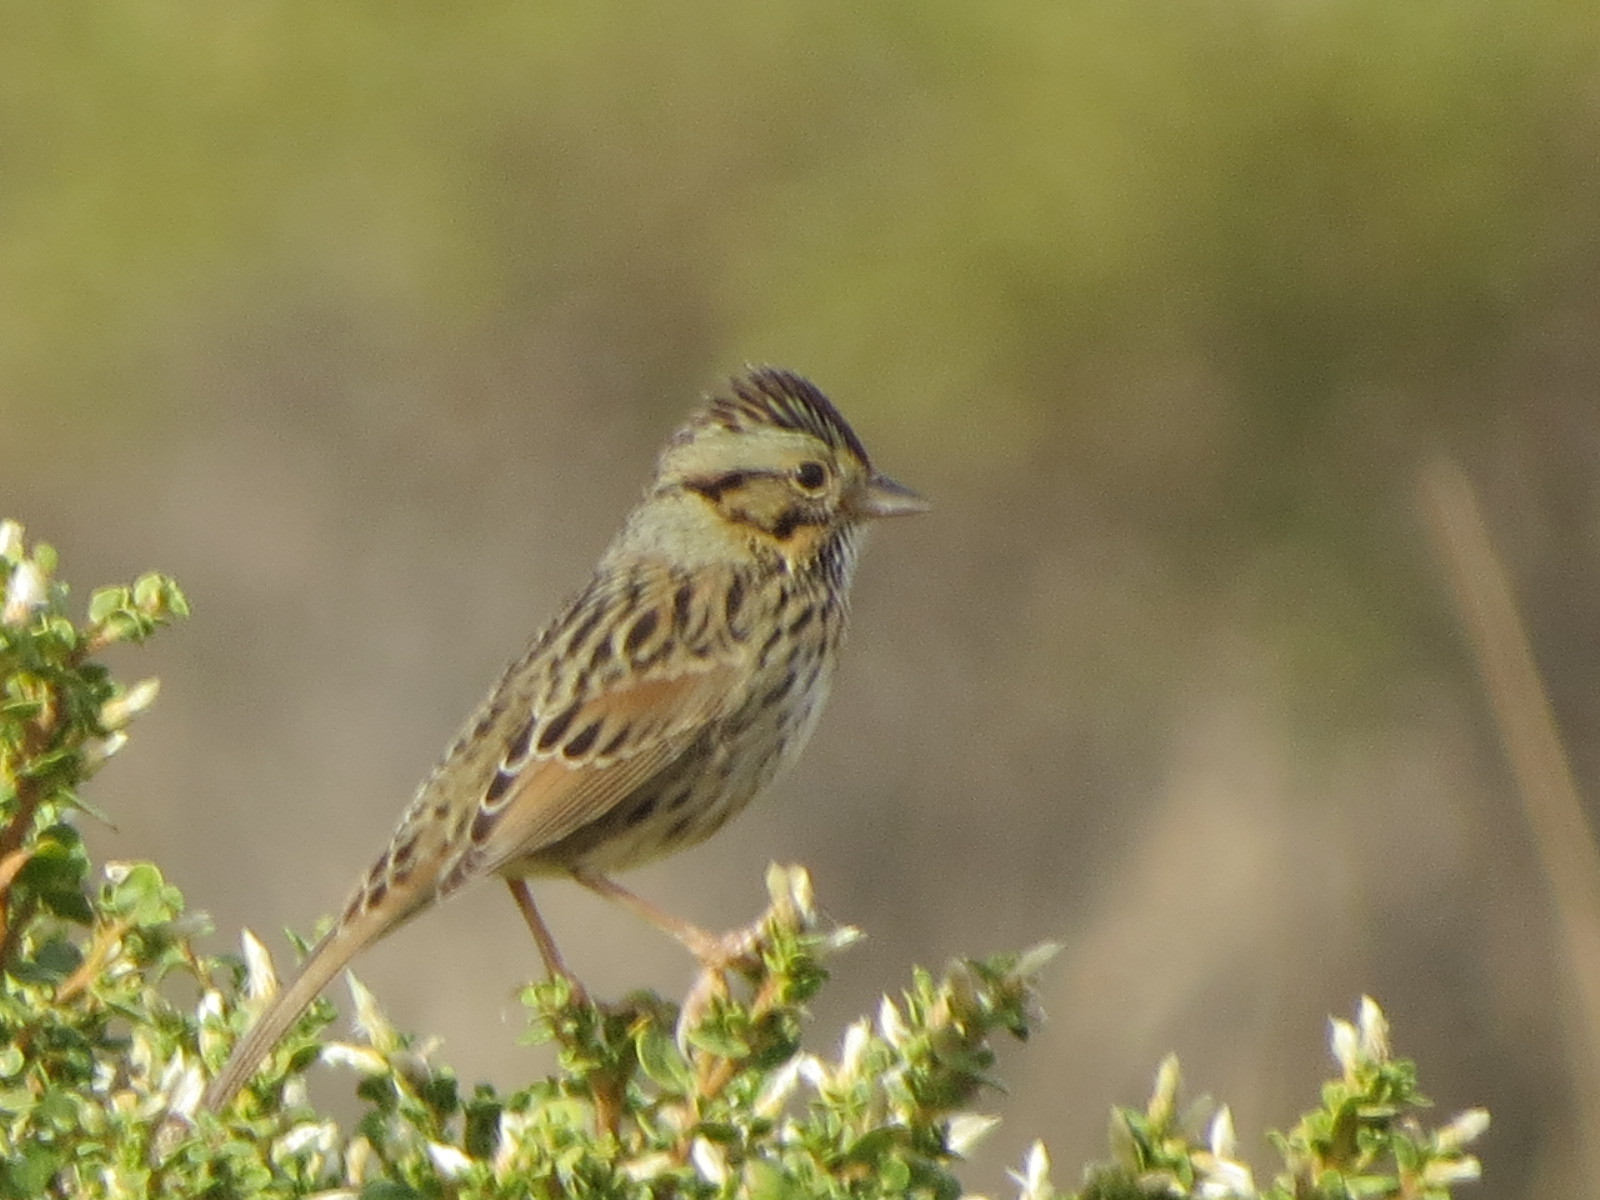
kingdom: Animalia
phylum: Chordata
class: Aves
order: Passeriformes
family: Passerellidae
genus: Melospiza
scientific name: Melospiza lincolnii
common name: Lincoln's sparrow
